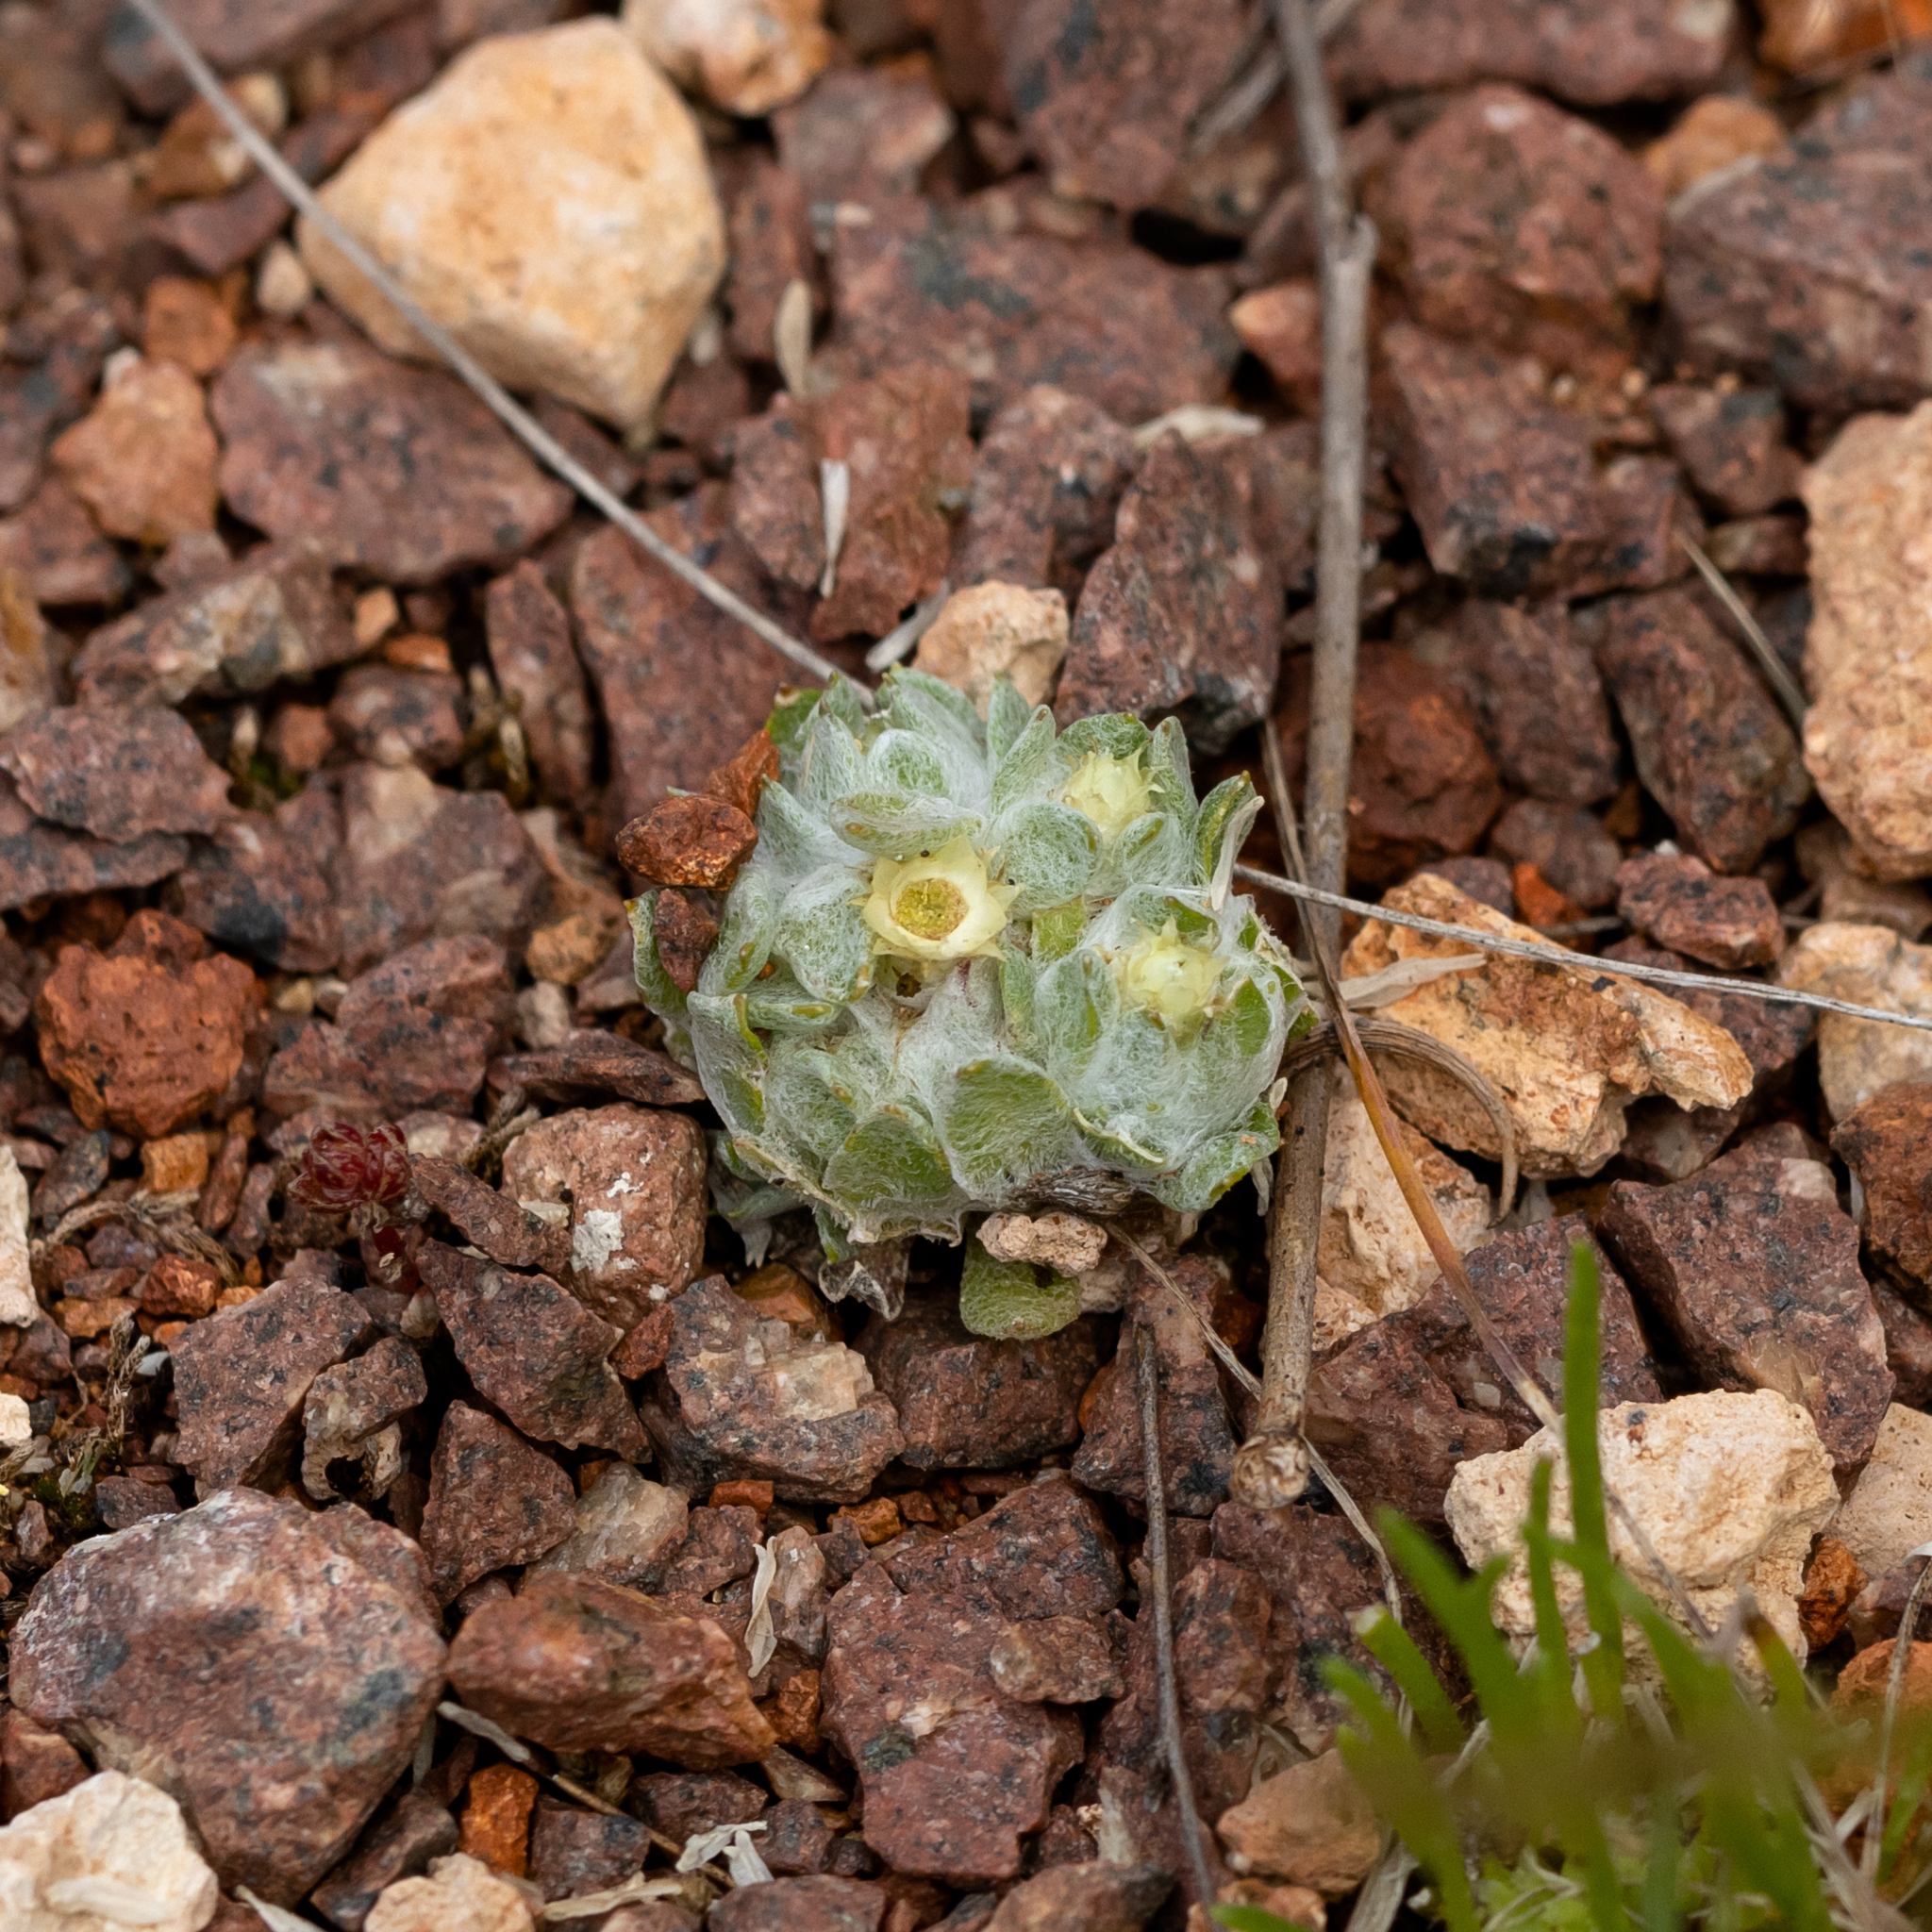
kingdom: Plantae
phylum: Tracheophyta
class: Magnoliopsida
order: Asterales
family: Asteraceae
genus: Actinobole
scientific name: Actinobole uliginosum
